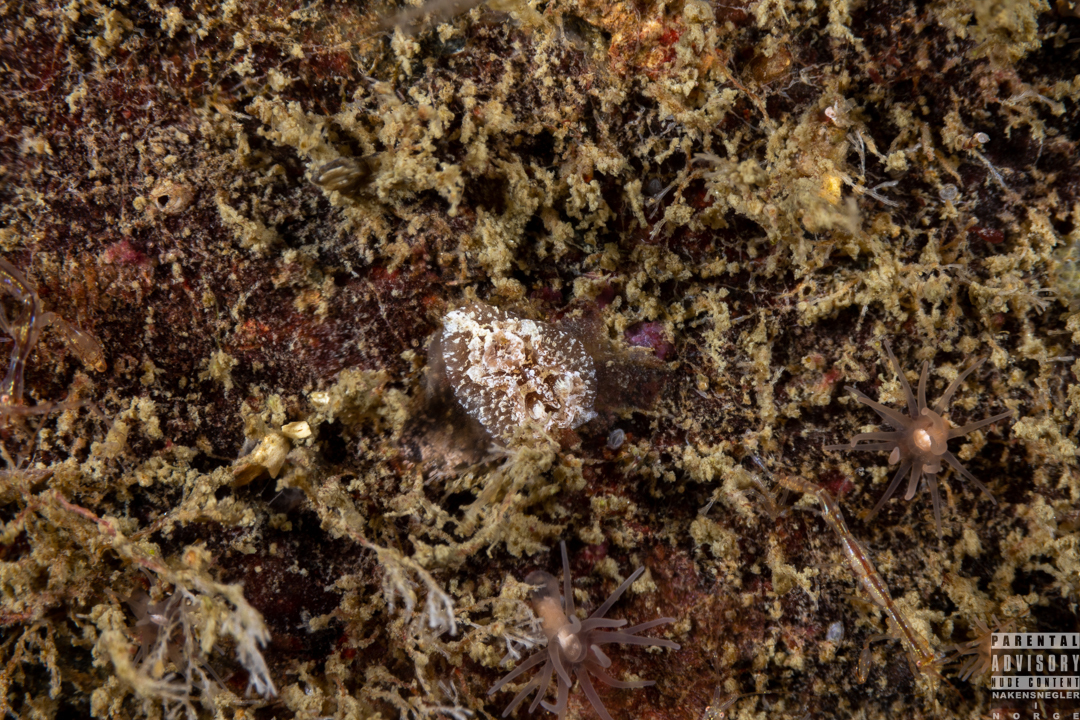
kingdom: Animalia
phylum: Mollusca
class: Gastropoda
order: Nudibranchia
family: Goniodorididae
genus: Pelagella
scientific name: Pelagella castanea
